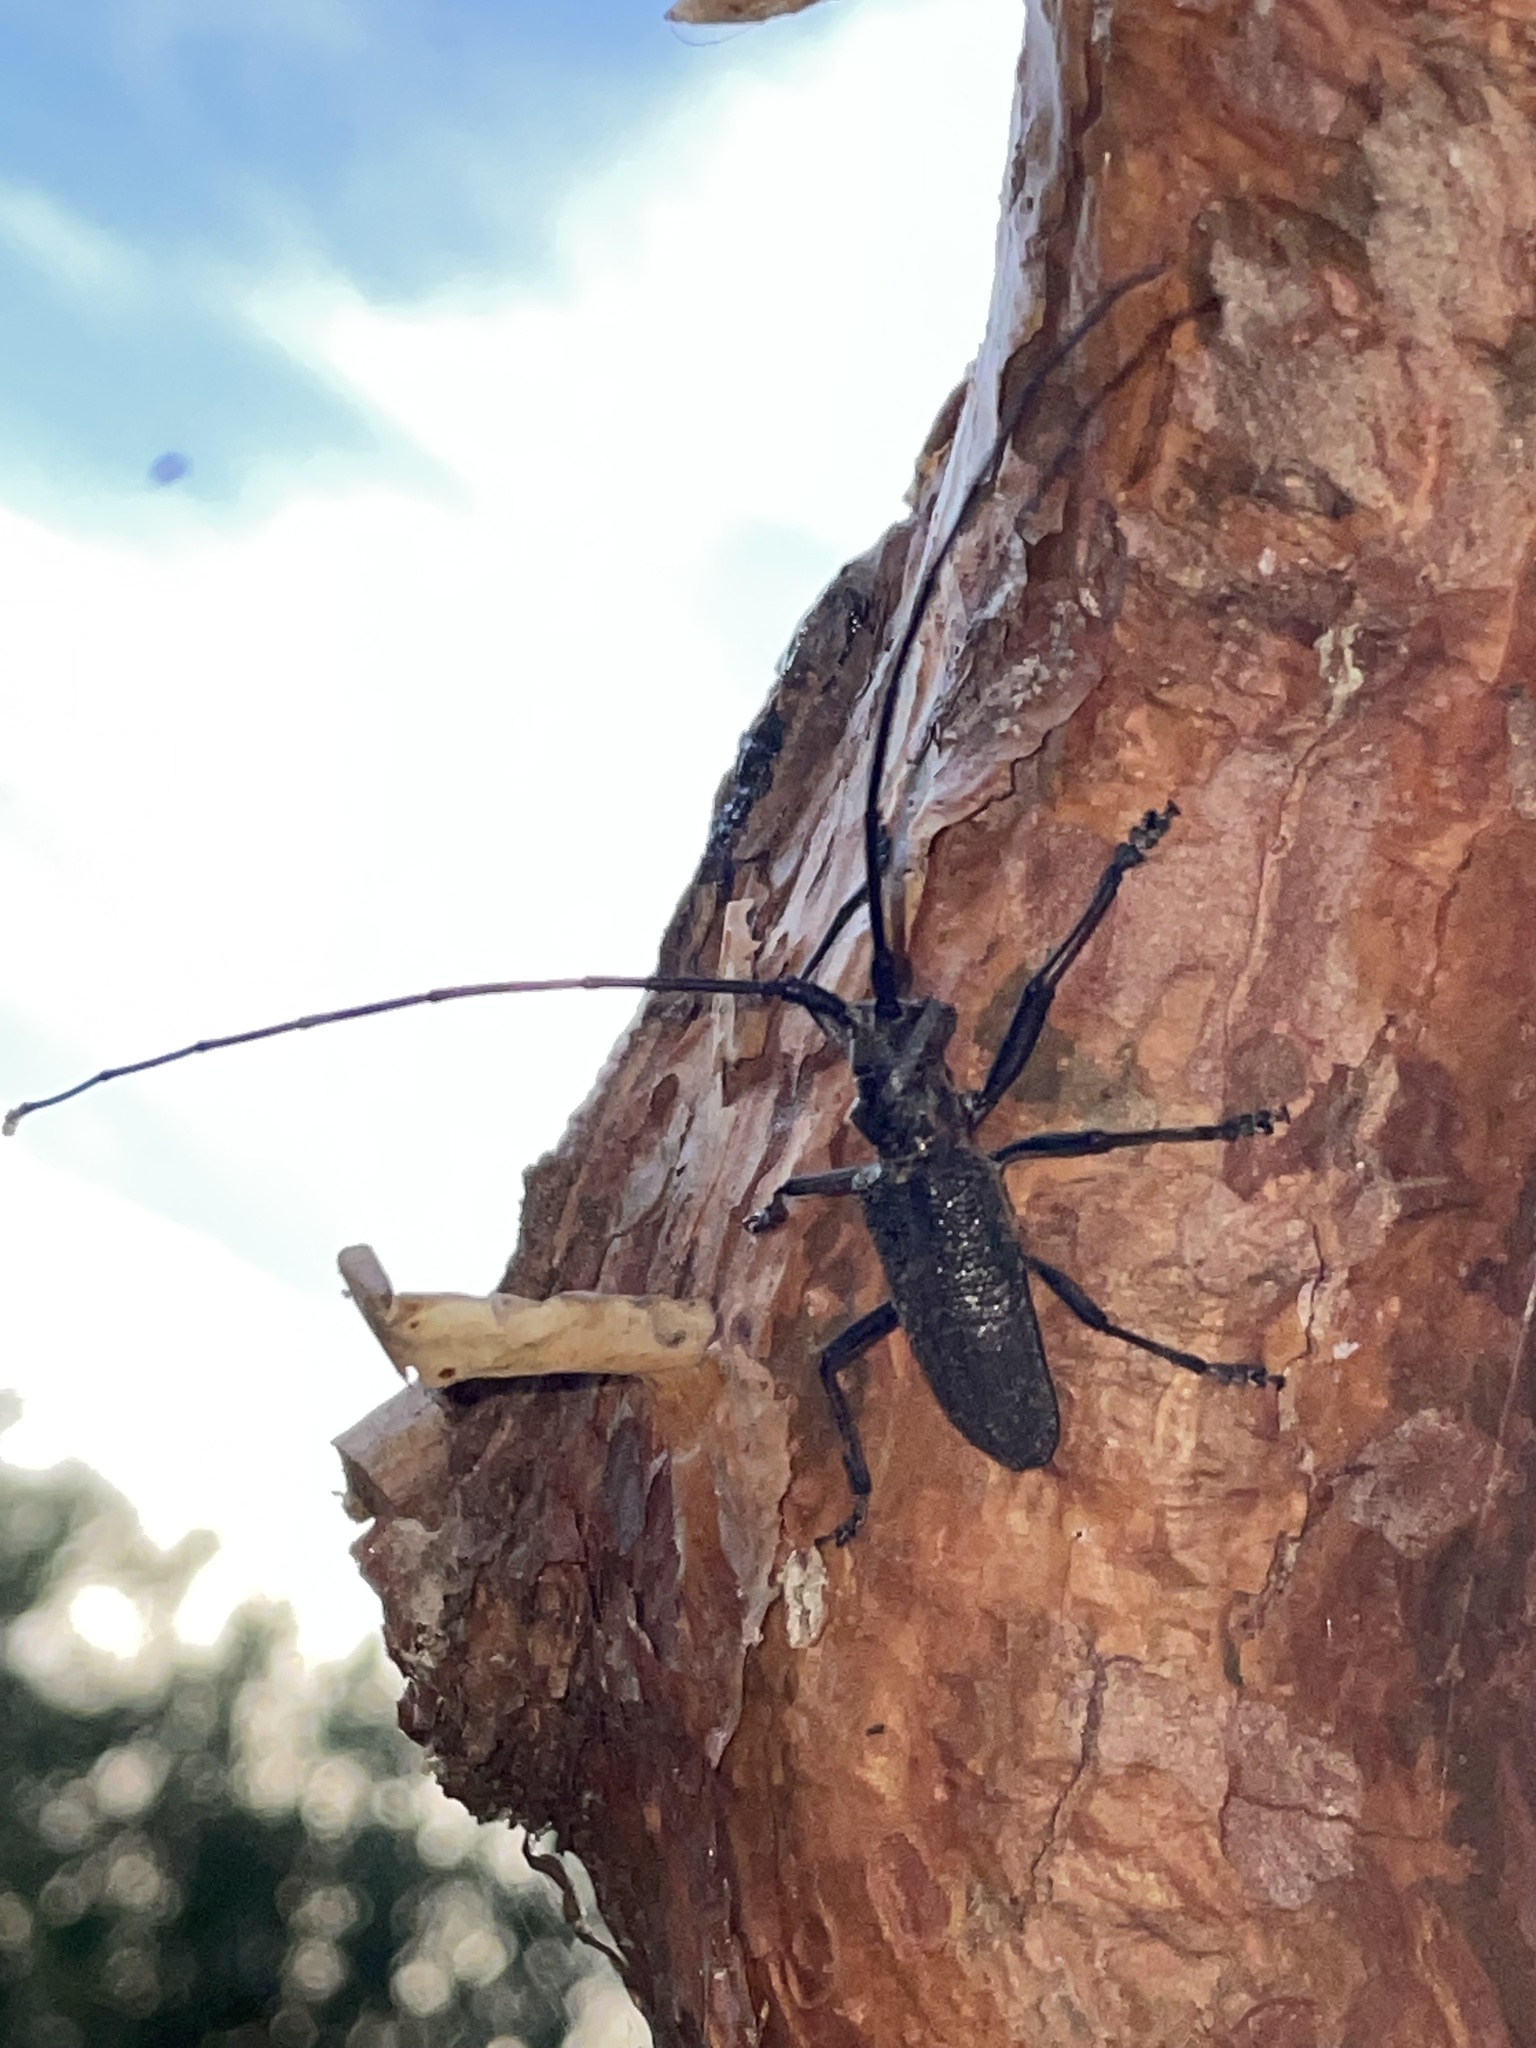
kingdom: Animalia
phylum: Arthropoda
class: Insecta
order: Coleoptera
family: Cerambycidae
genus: Monochamus
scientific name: Monochamus galloprovincialis
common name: Pine sawyer
